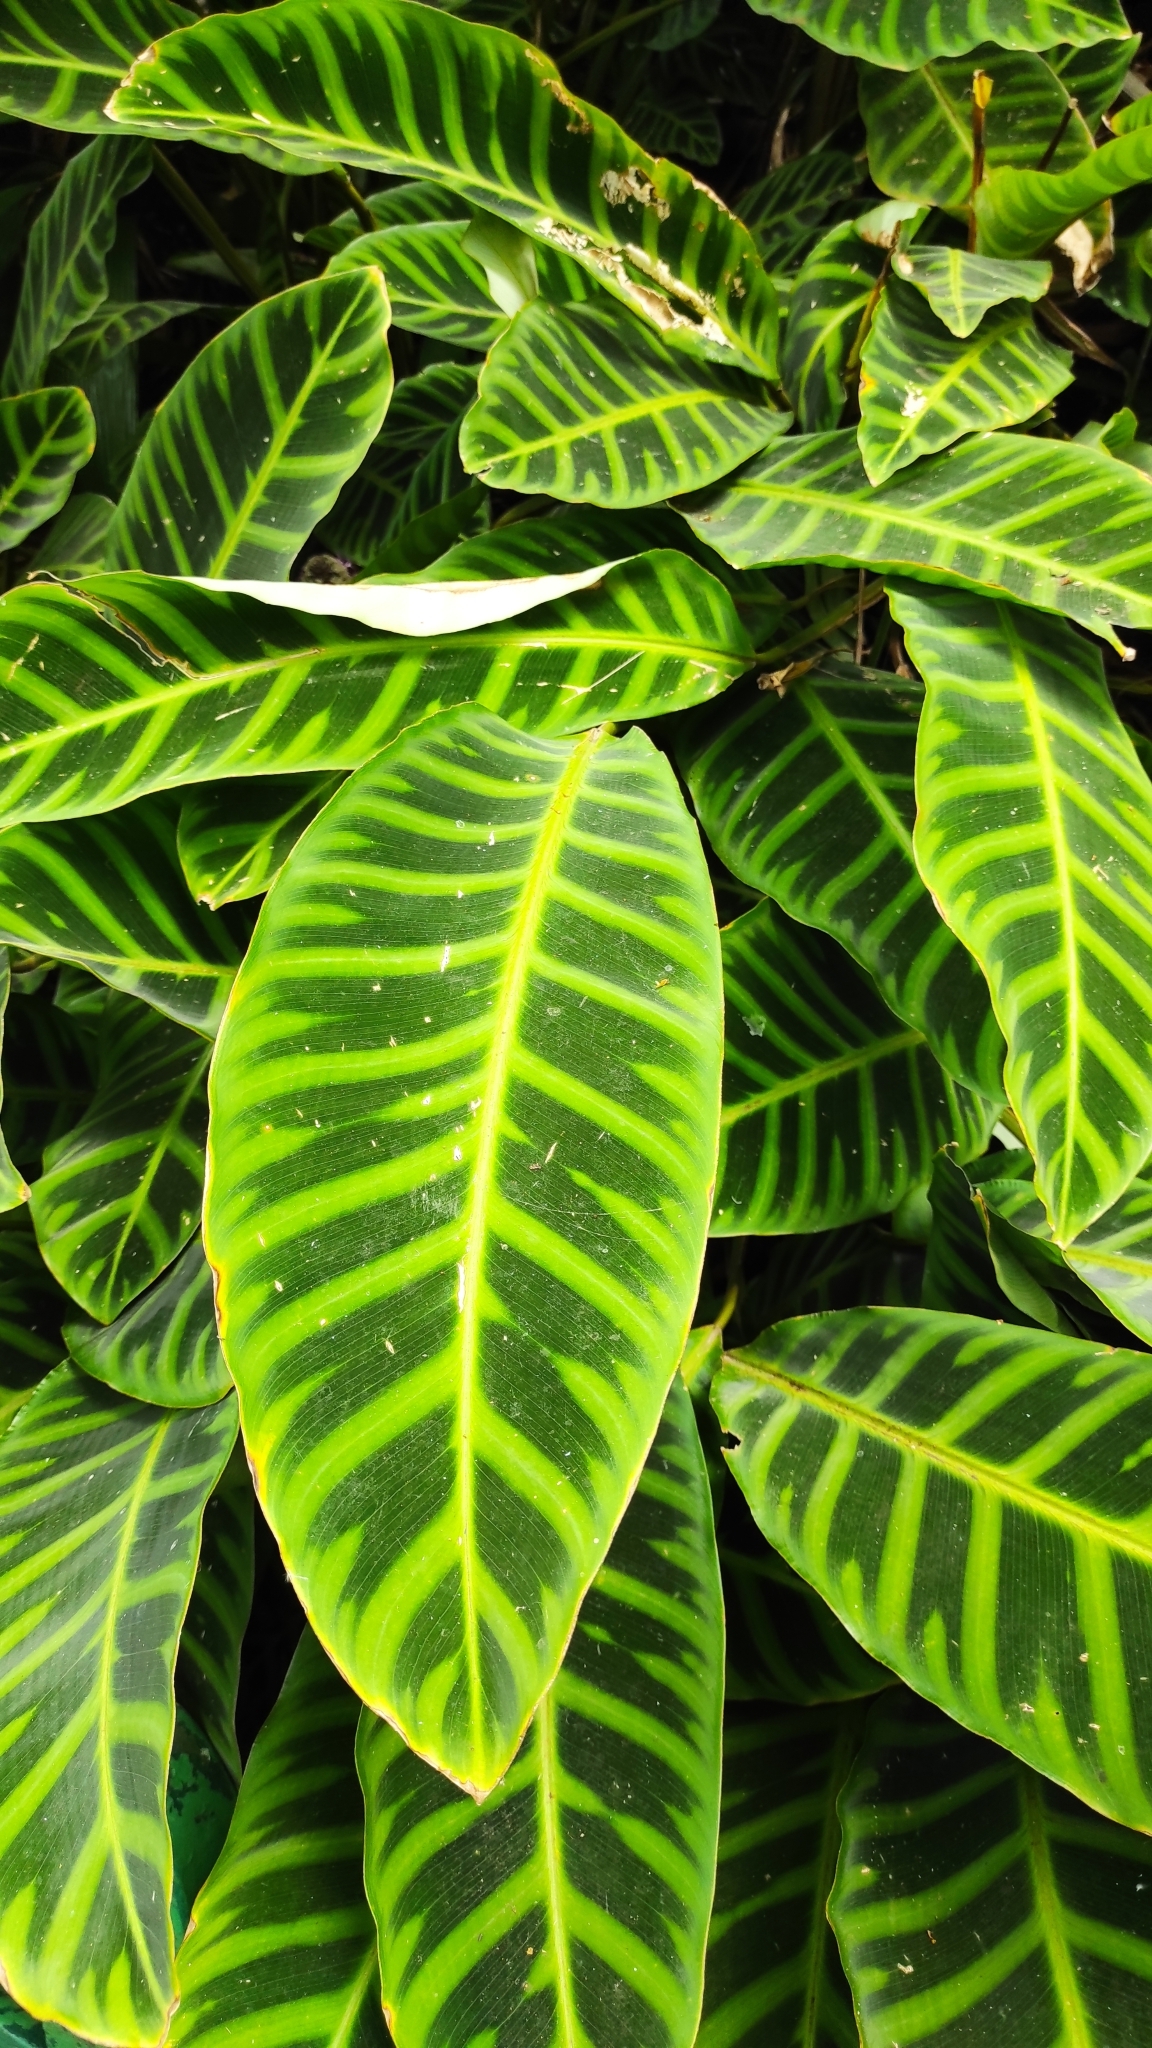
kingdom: Plantae
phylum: Tracheophyta
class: Liliopsida
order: Zingiberales
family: Marantaceae
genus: Goeppertia
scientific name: Goeppertia zebrina
